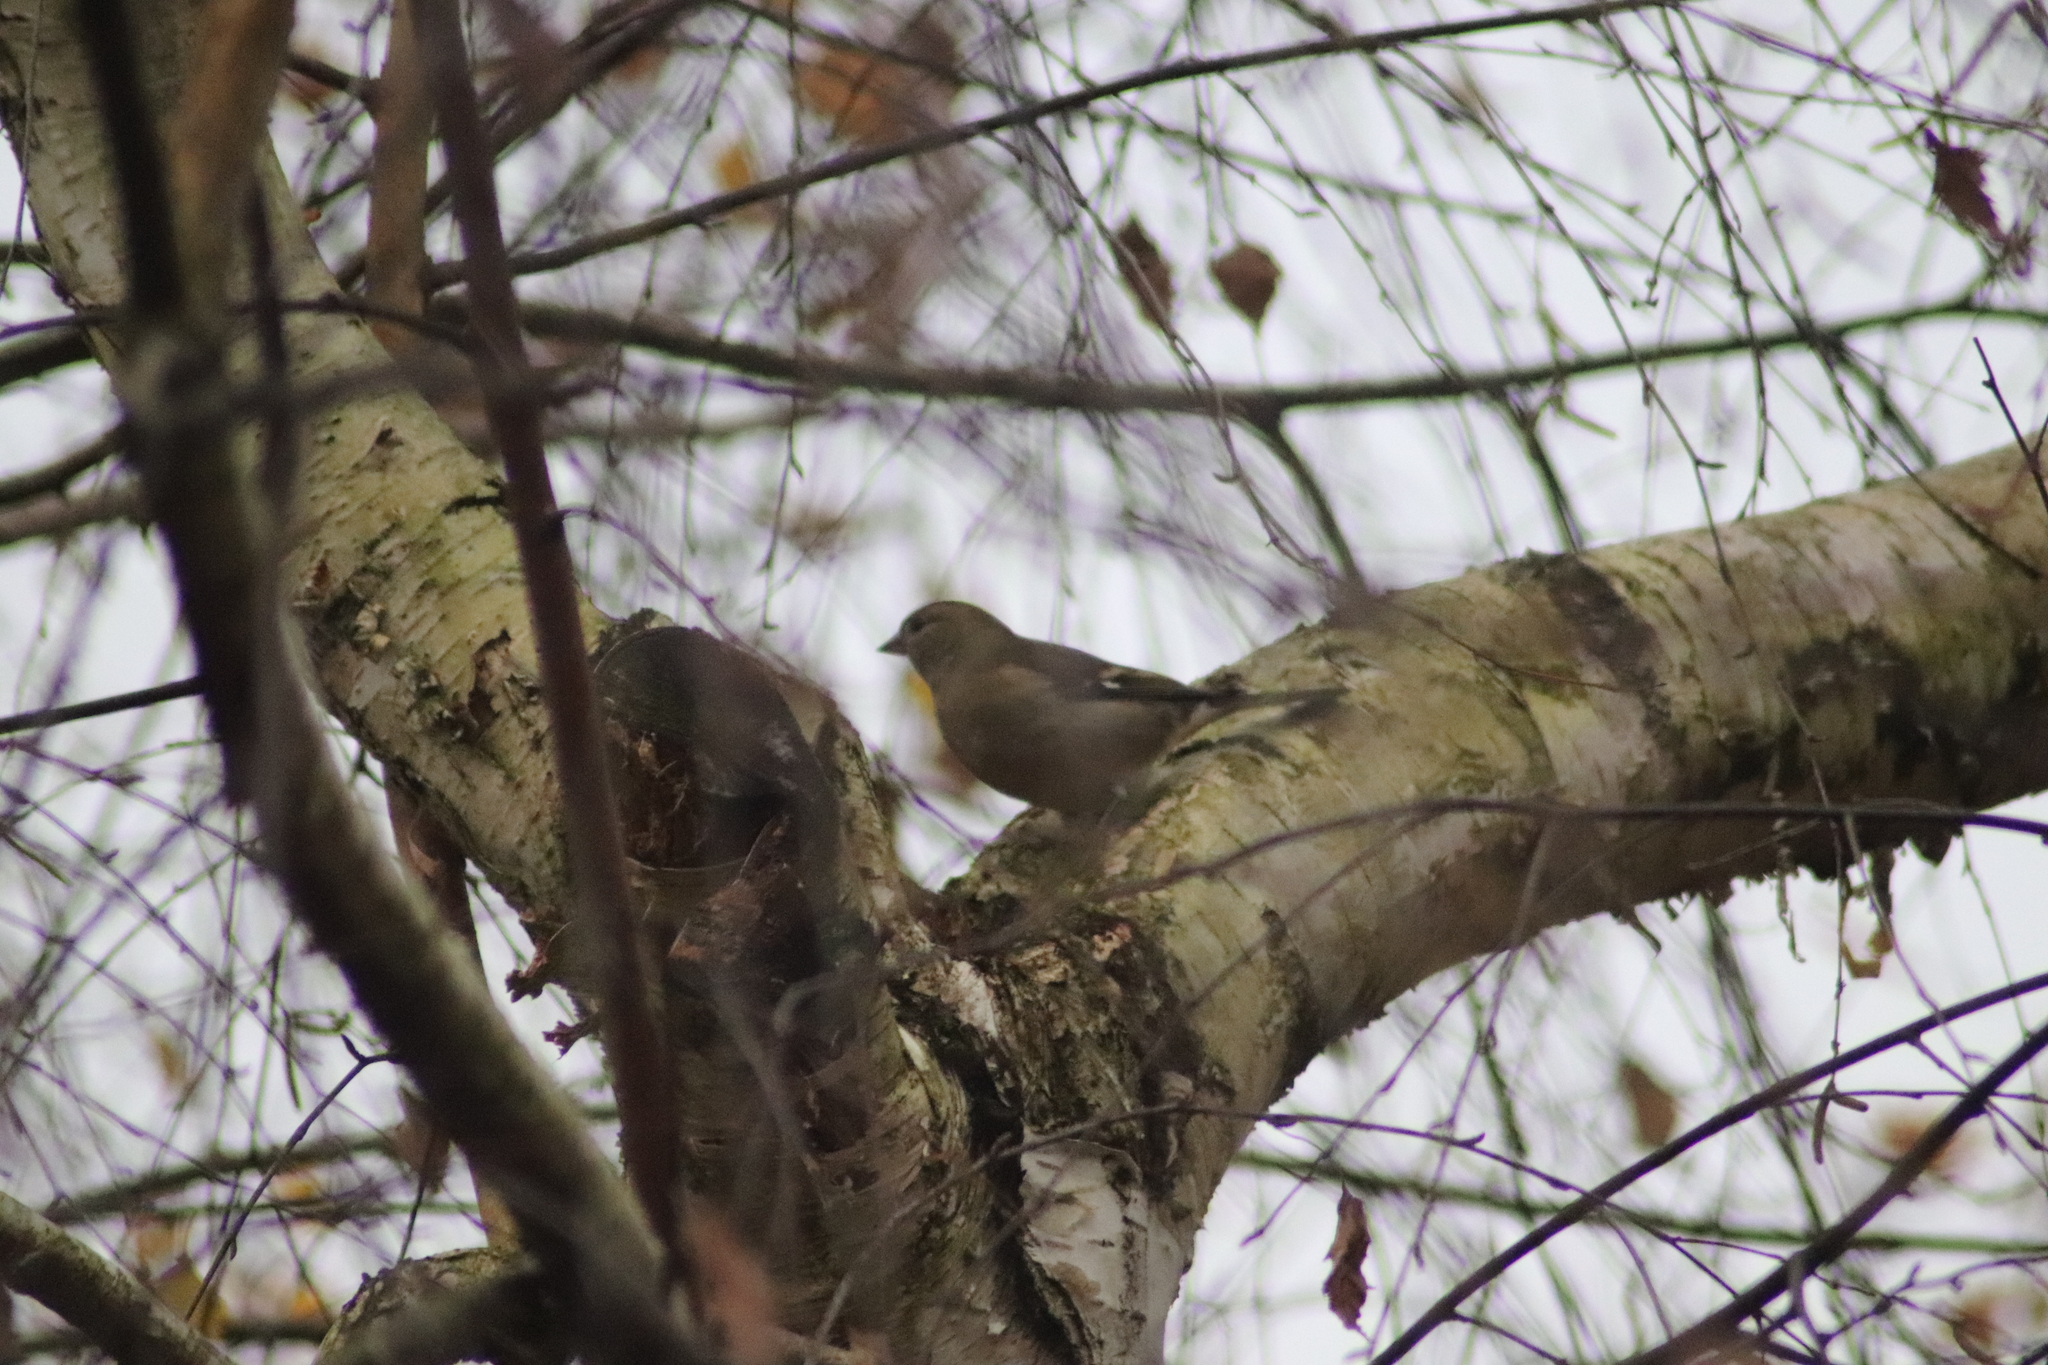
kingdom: Animalia
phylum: Chordata
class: Aves
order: Passeriformes
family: Fringillidae
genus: Fringilla
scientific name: Fringilla coelebs
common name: Common chaffinch
